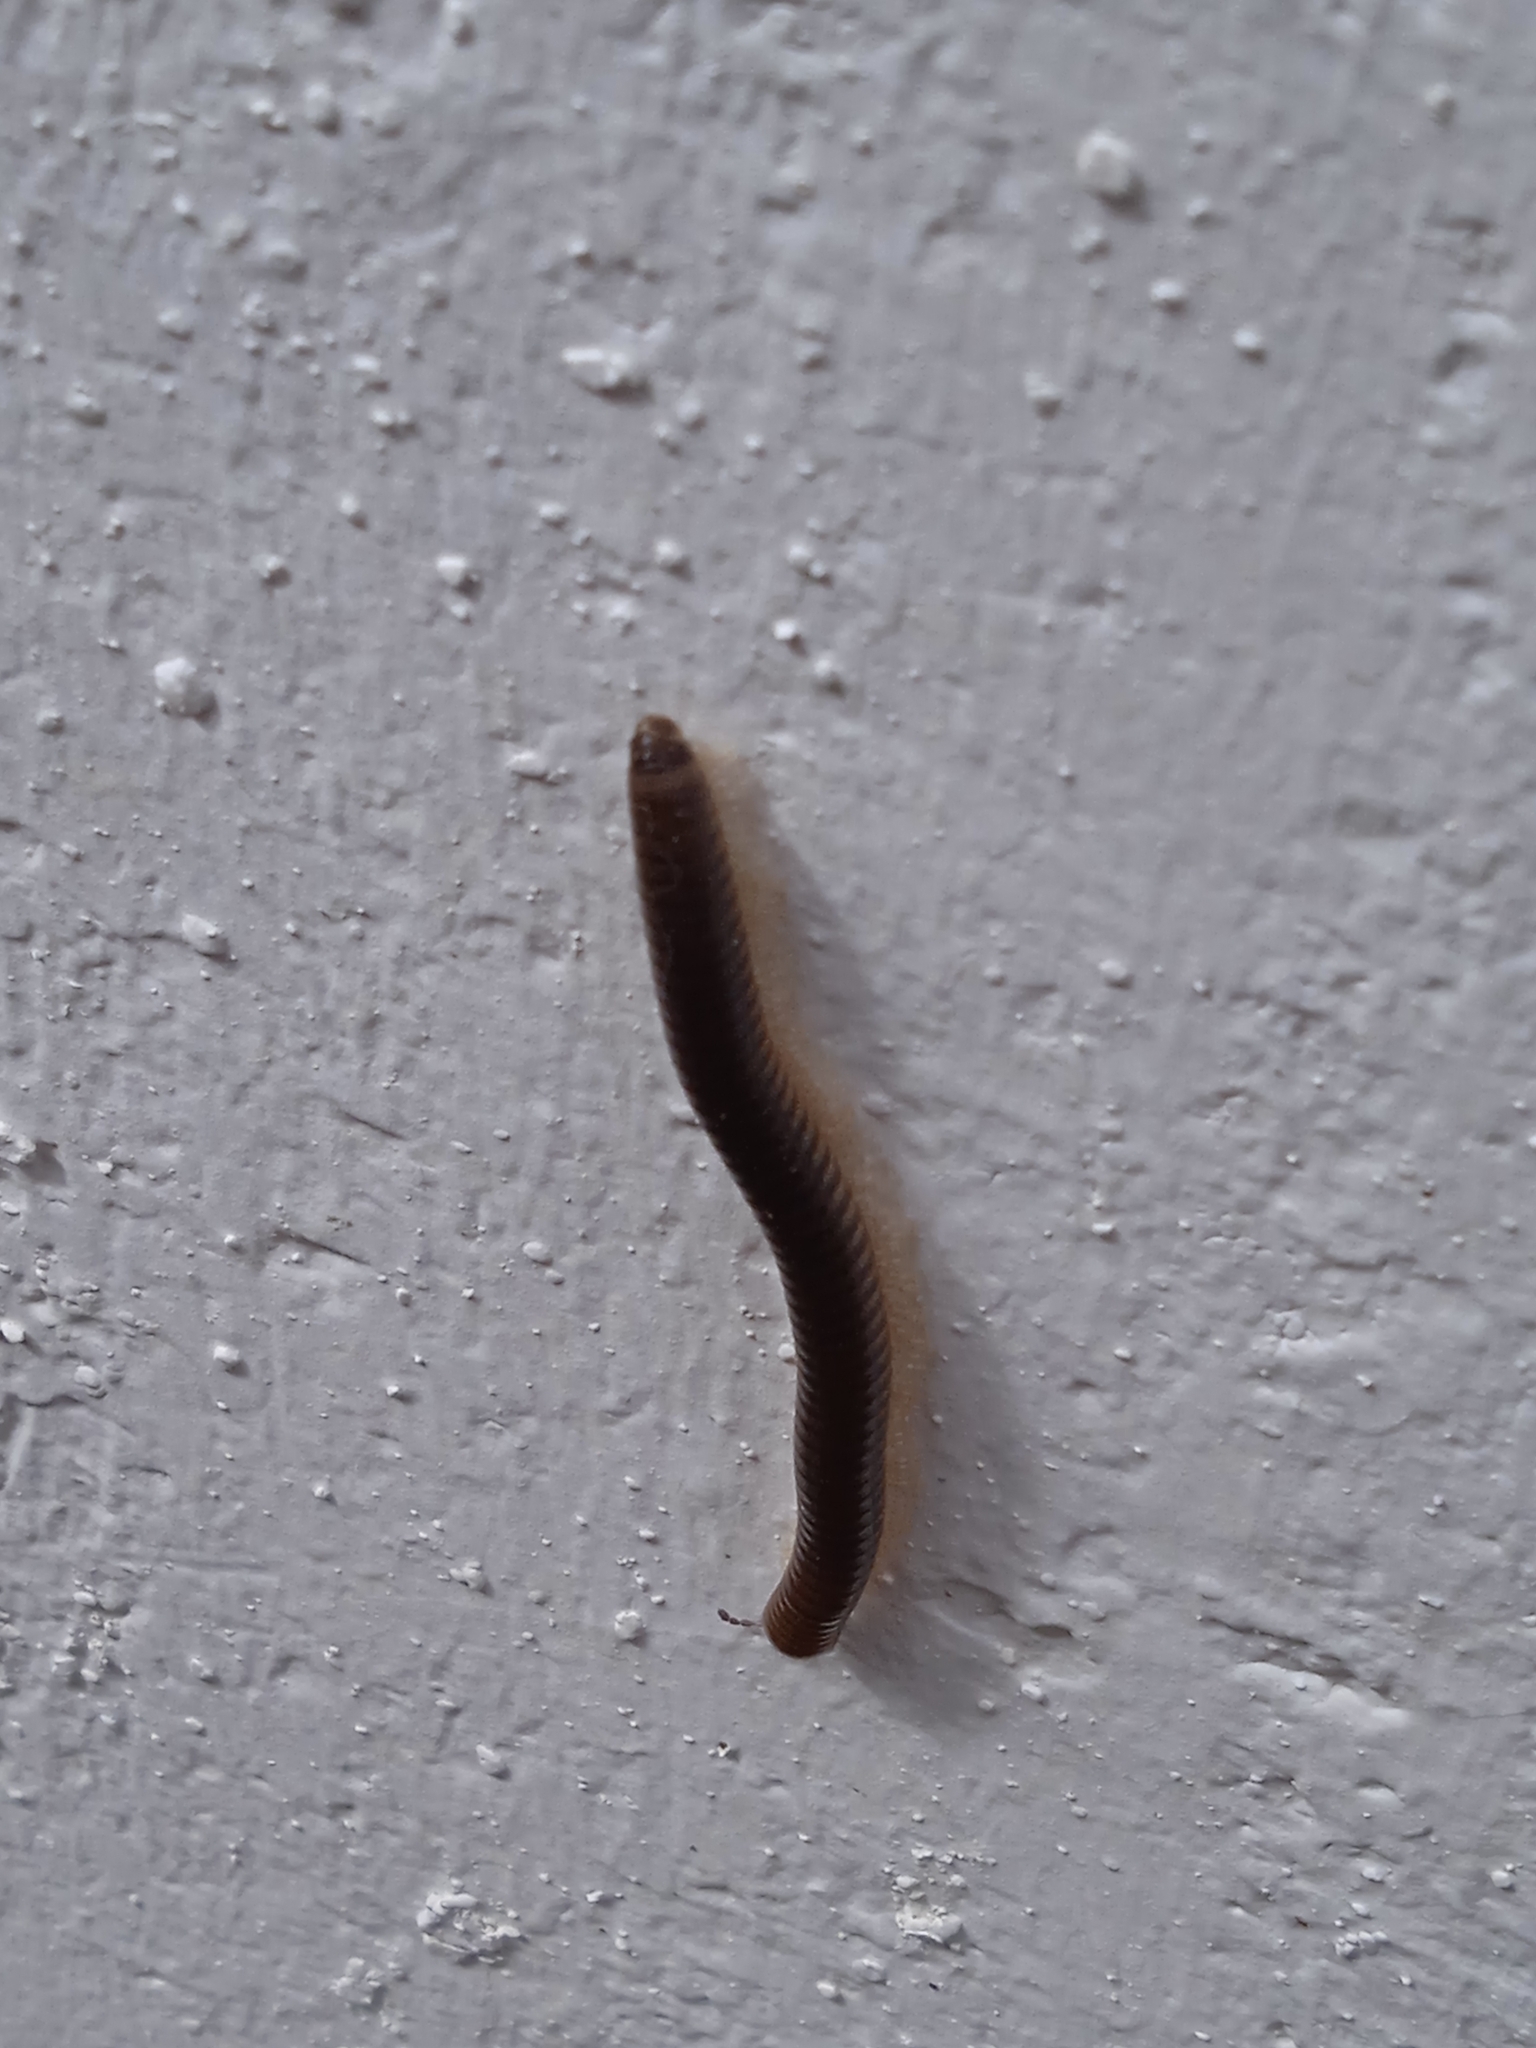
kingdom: Animalia
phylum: Arthropoda
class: Diplopoda
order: Julida
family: Julidae
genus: Pachyiulus
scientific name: Pachyiulus flavipes
